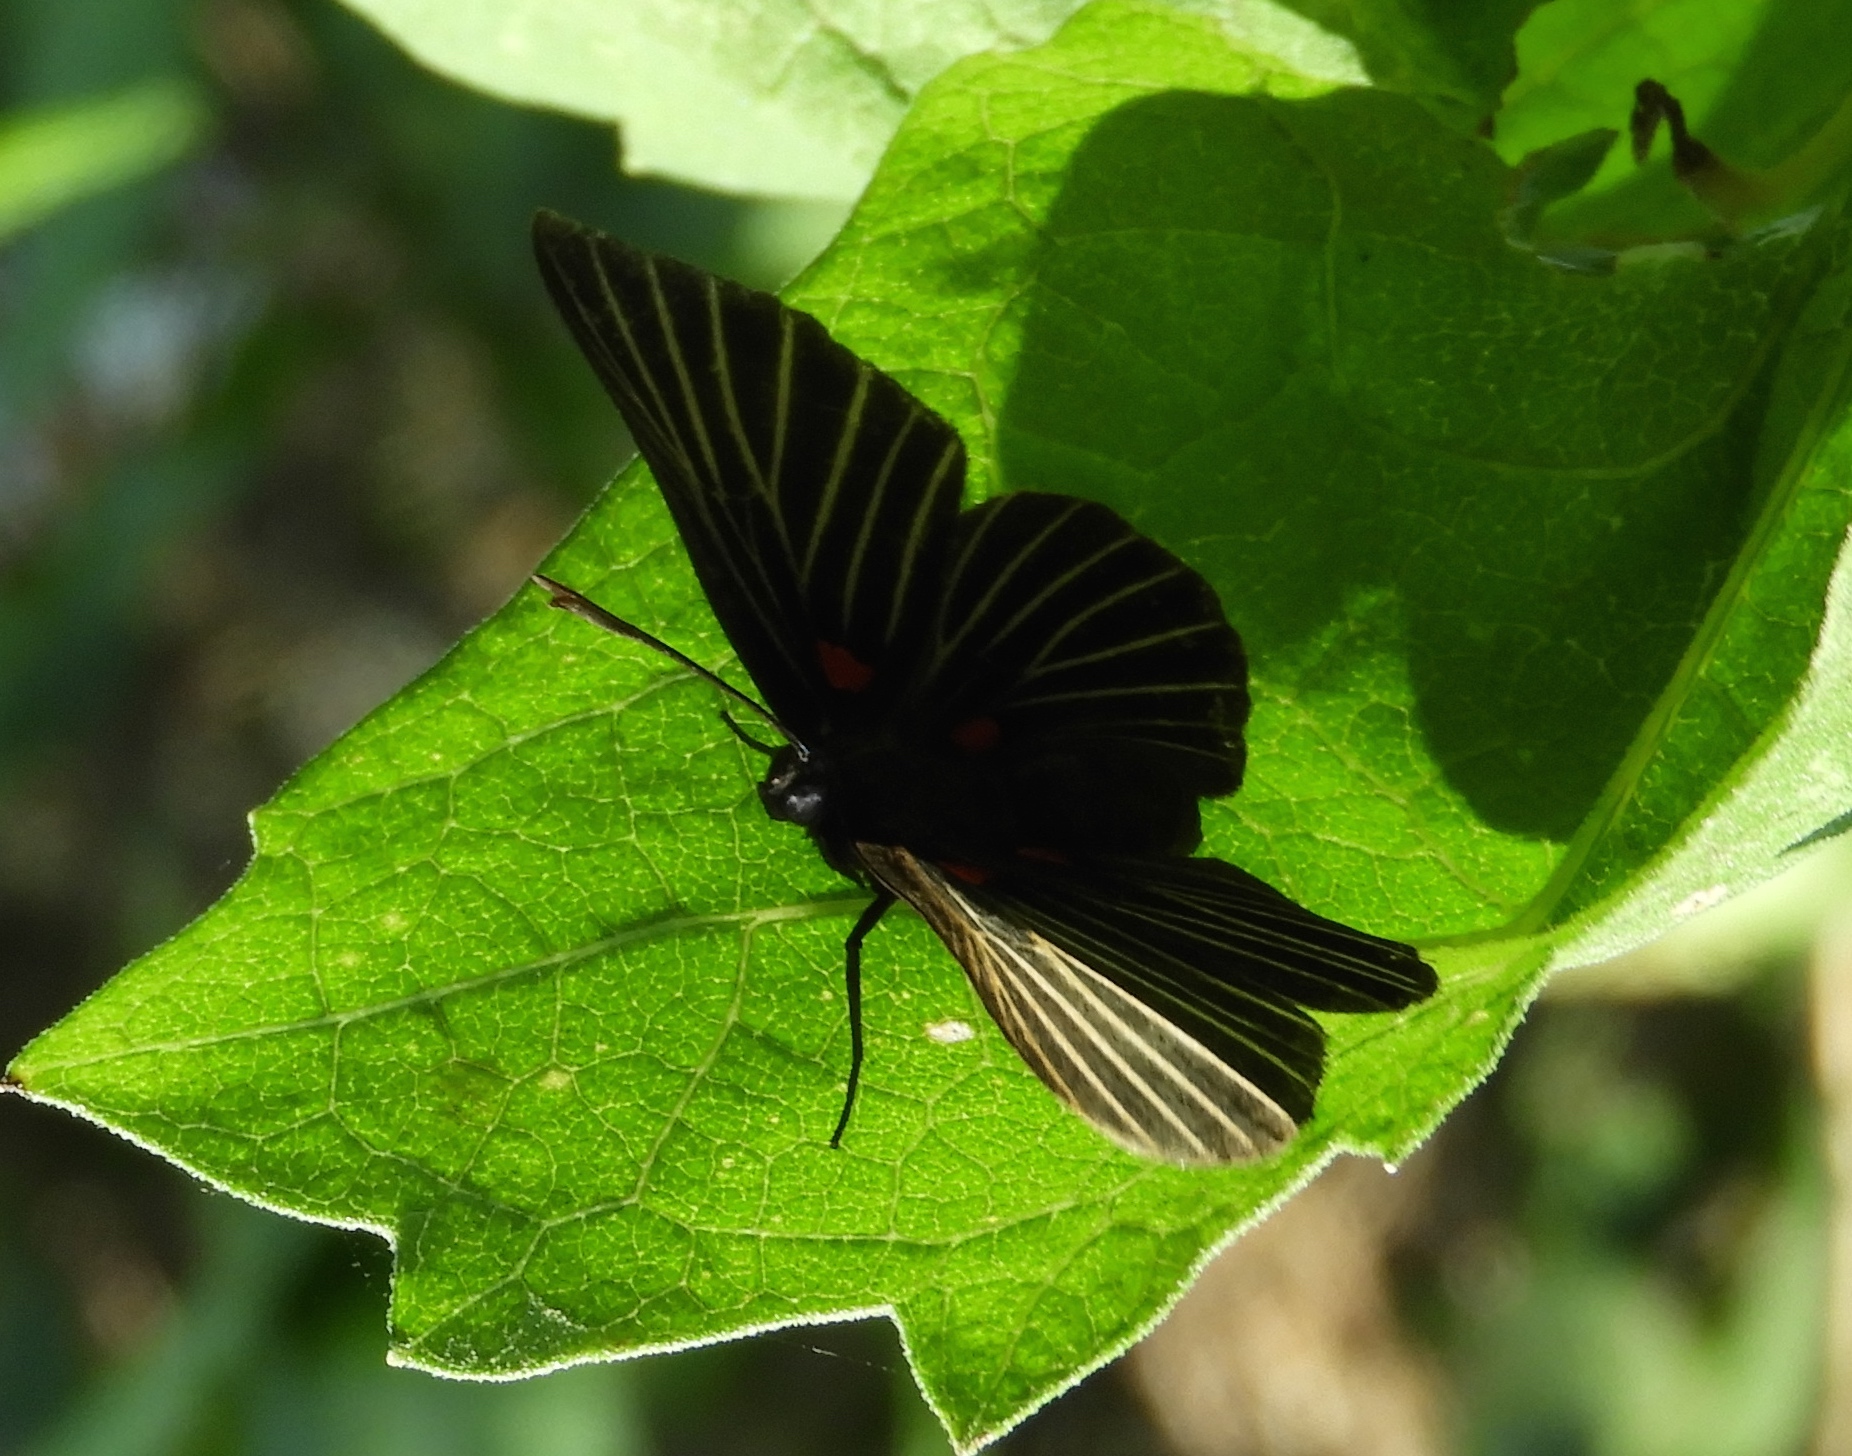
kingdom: Animalia
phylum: Arthropoda
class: Insecta
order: Lepidoptera
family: Lycaenidae
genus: Melanis
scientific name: Melanis
